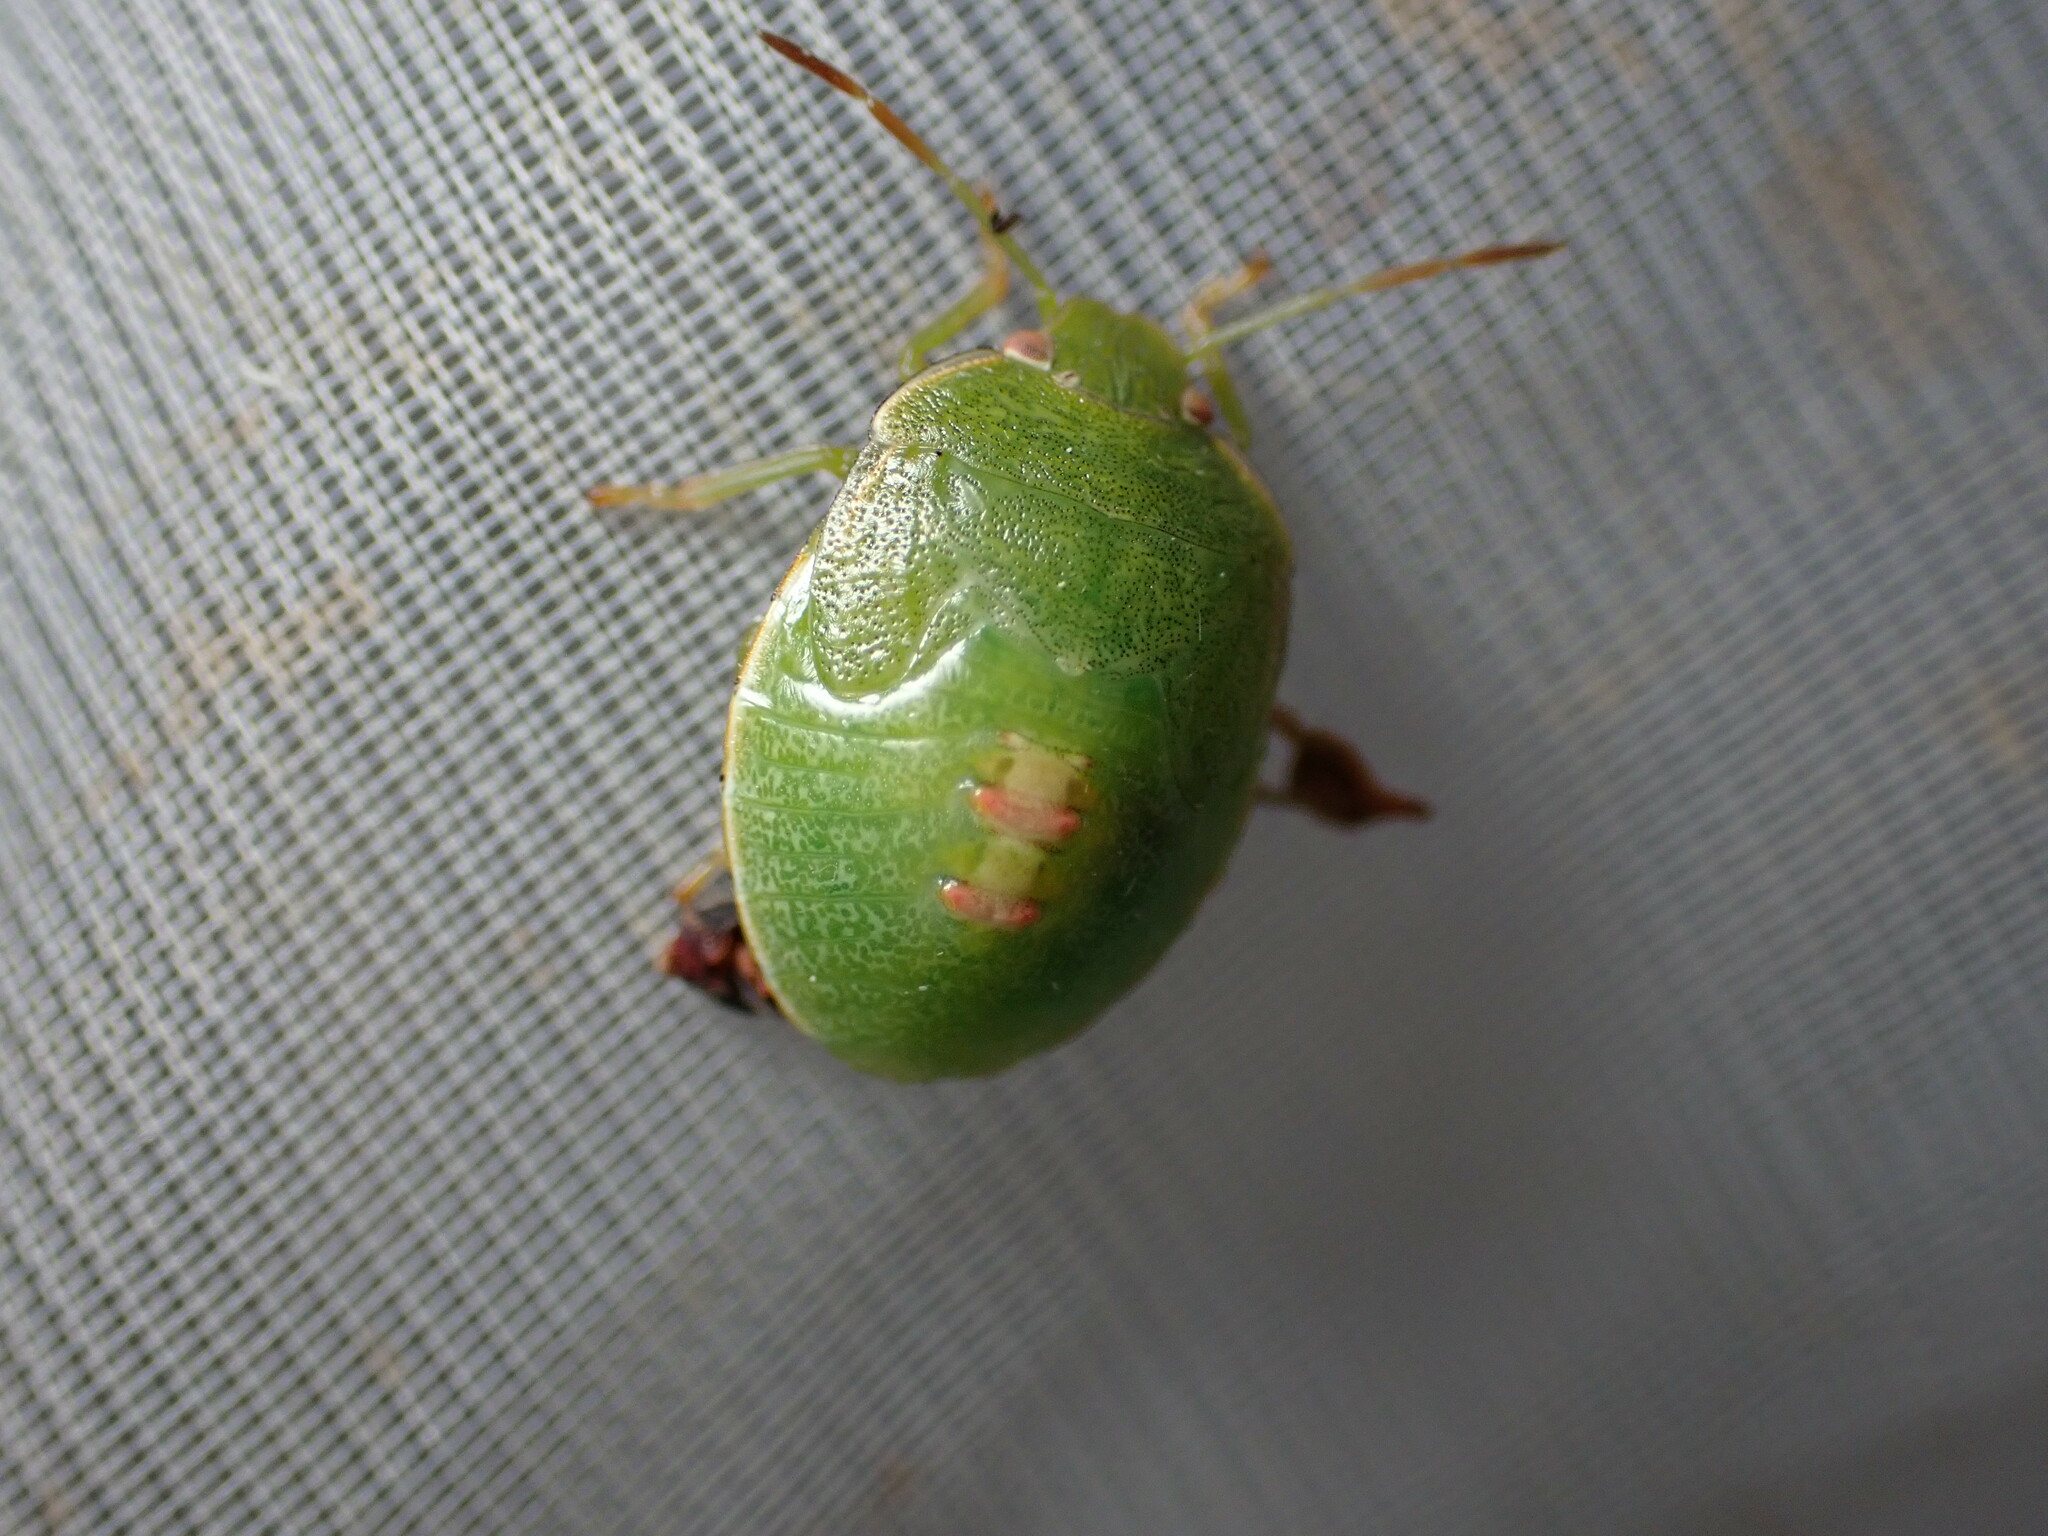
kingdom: Animalia
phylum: Arthropoda
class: Insecta
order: Hemiptera
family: Pentatomidae
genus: Acrosternum
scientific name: Acrosternum heegeri
